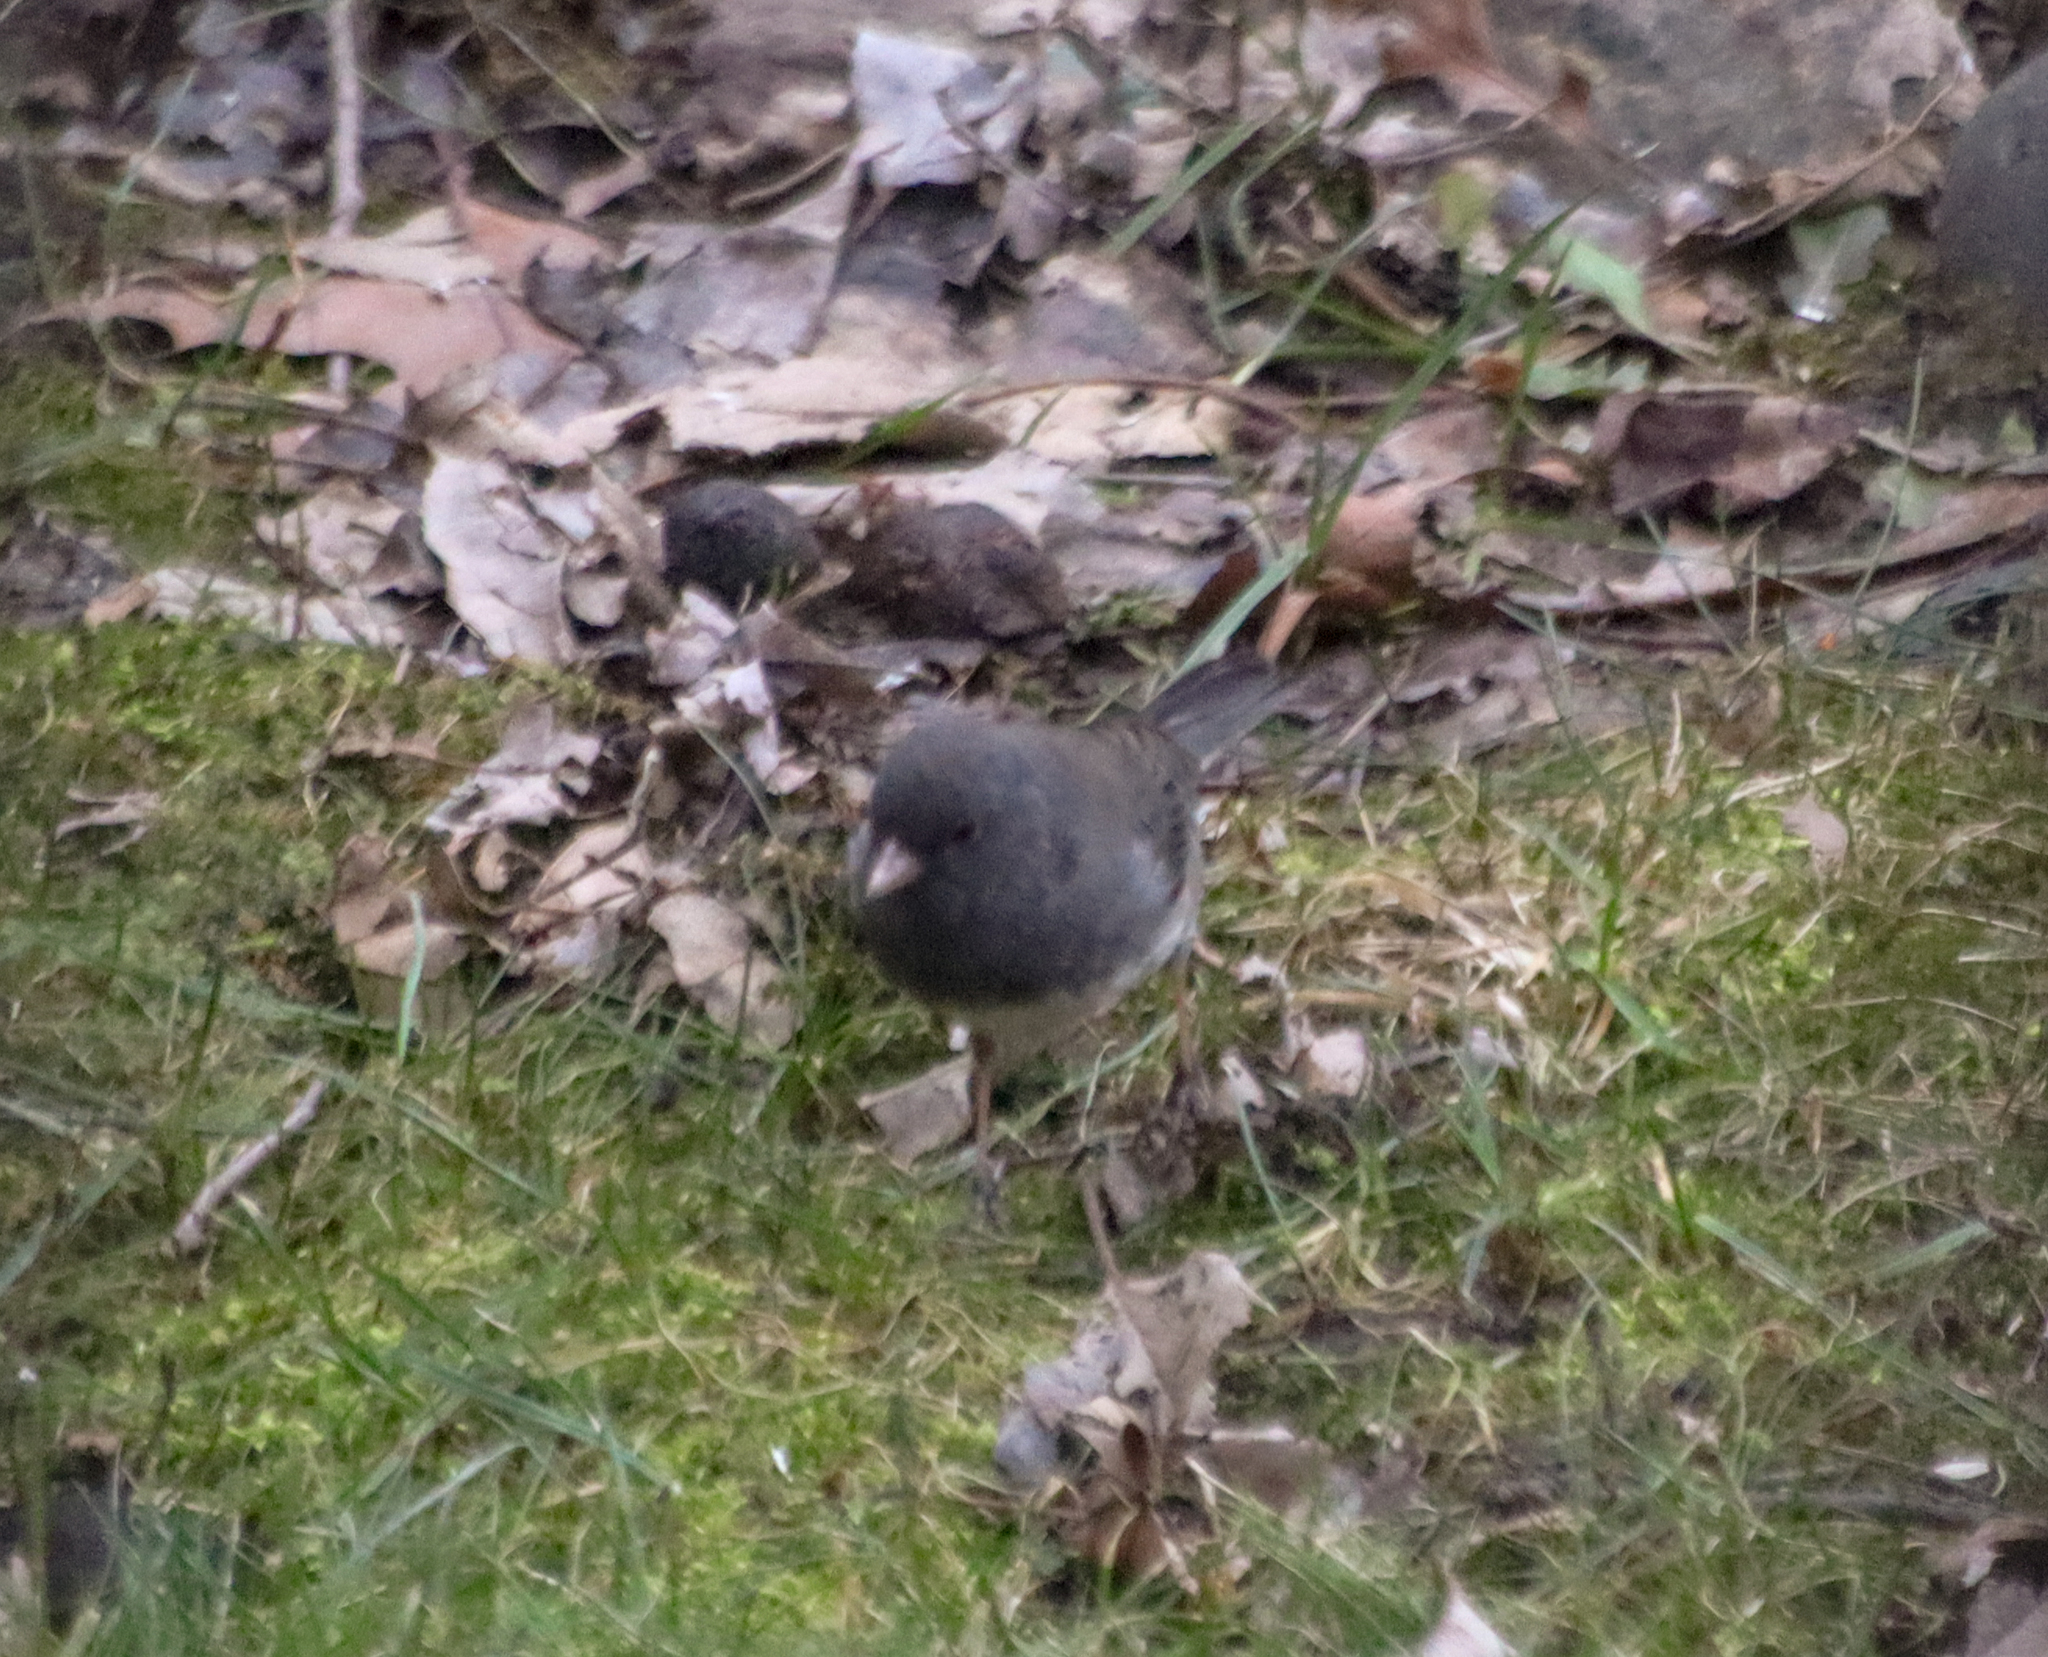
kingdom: Animalia
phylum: Chordata
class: Aves
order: Passeriformes
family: Passerellidae
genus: Junco
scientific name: Junco hyemalis
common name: Dark-eyed junco
